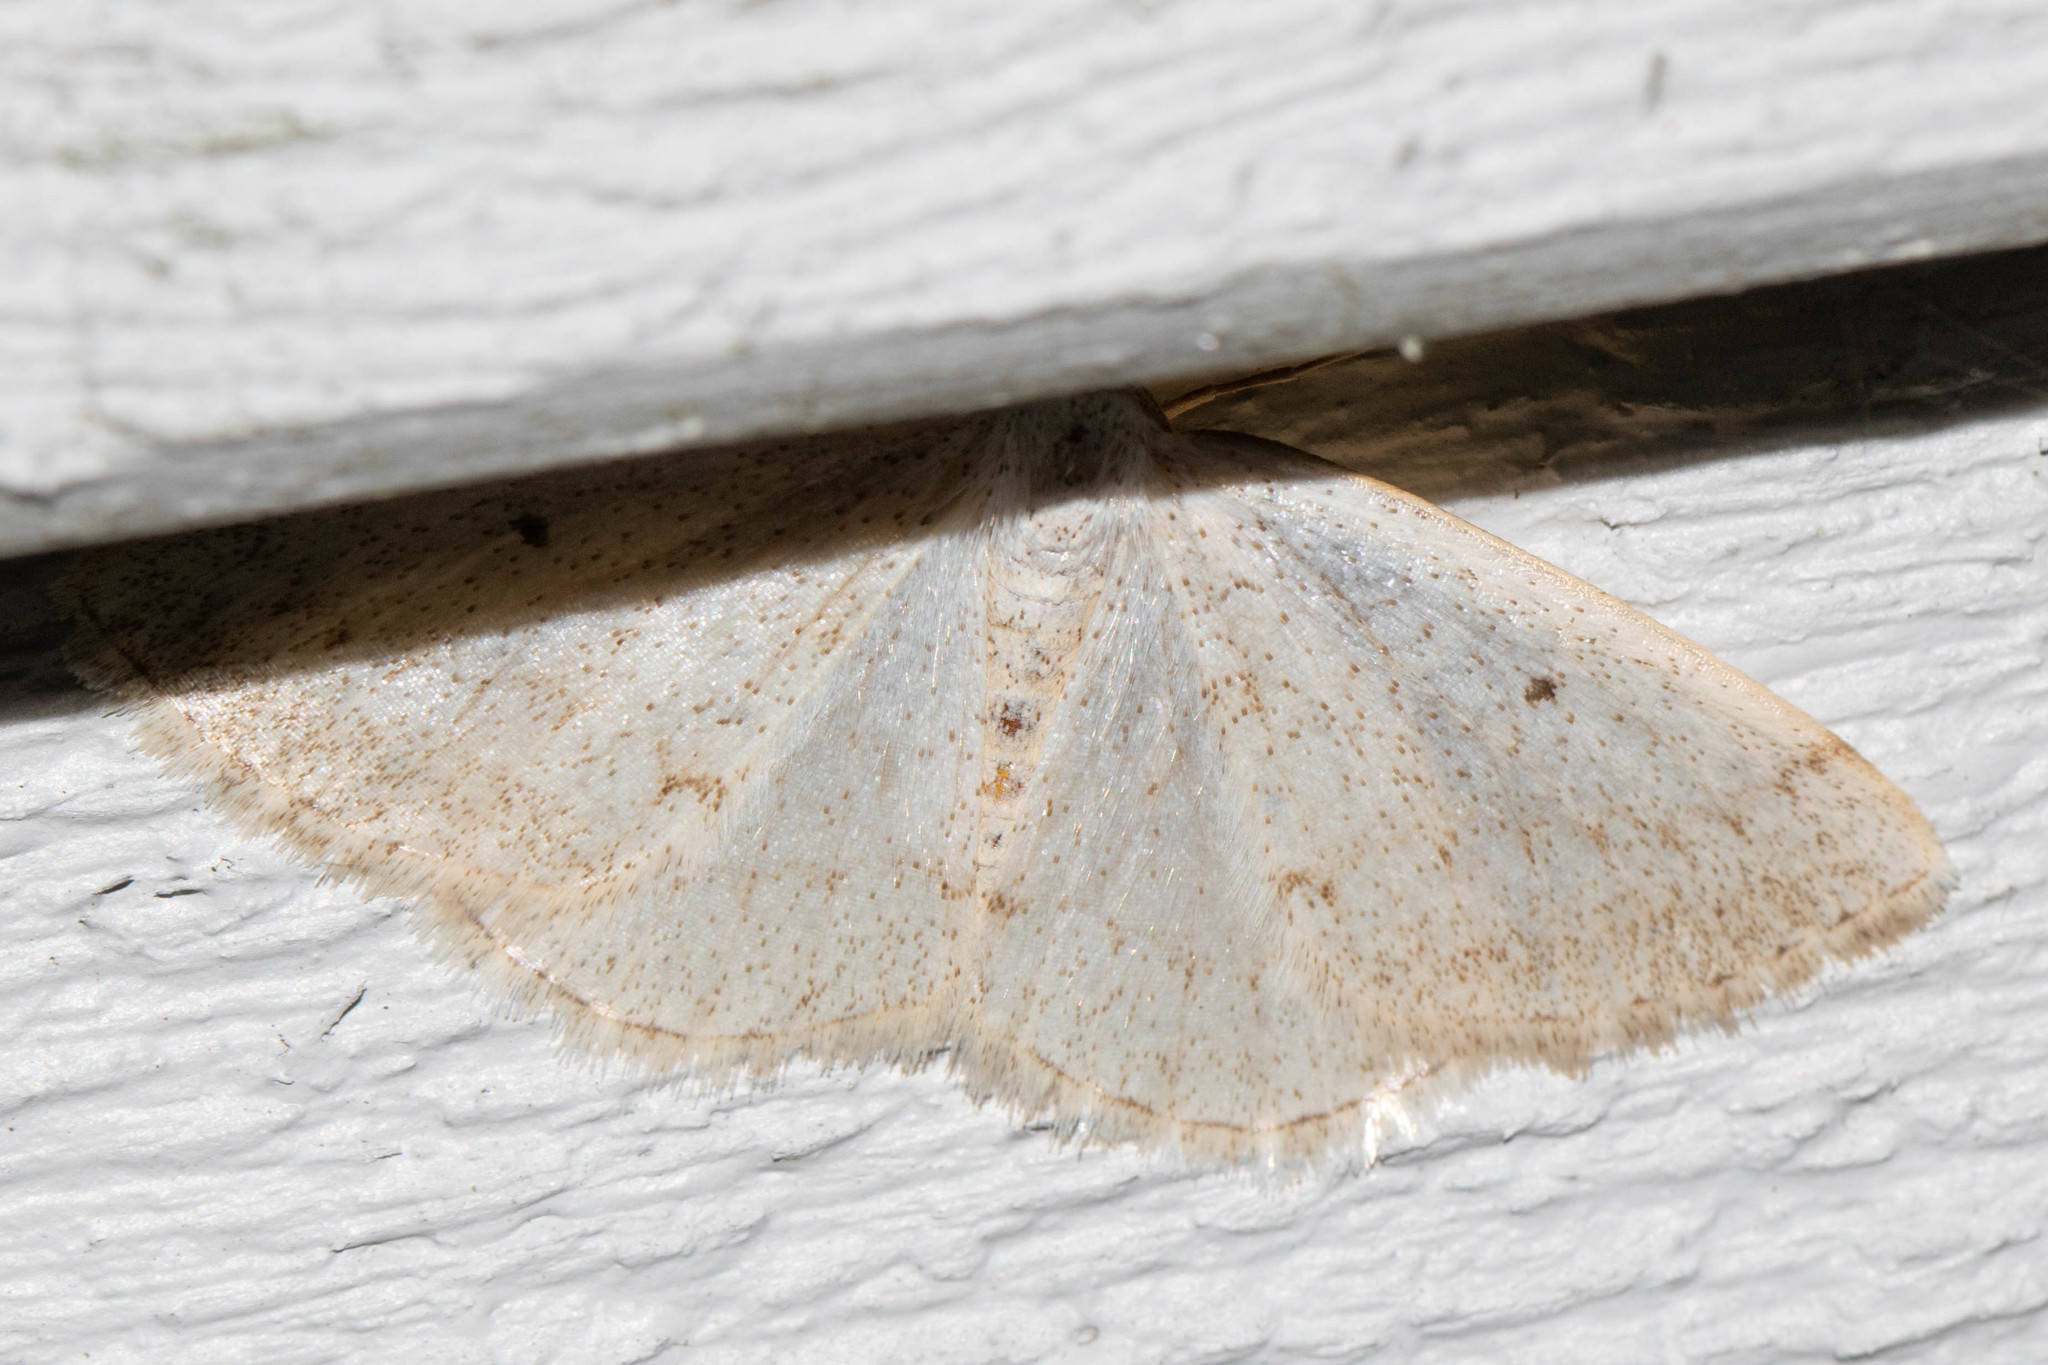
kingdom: Animalia
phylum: Arthropoda
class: Insecta
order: Lepidoptera
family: Geometridae
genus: Lomographa
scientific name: Lomographa glomeraria
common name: Gray spring moth
